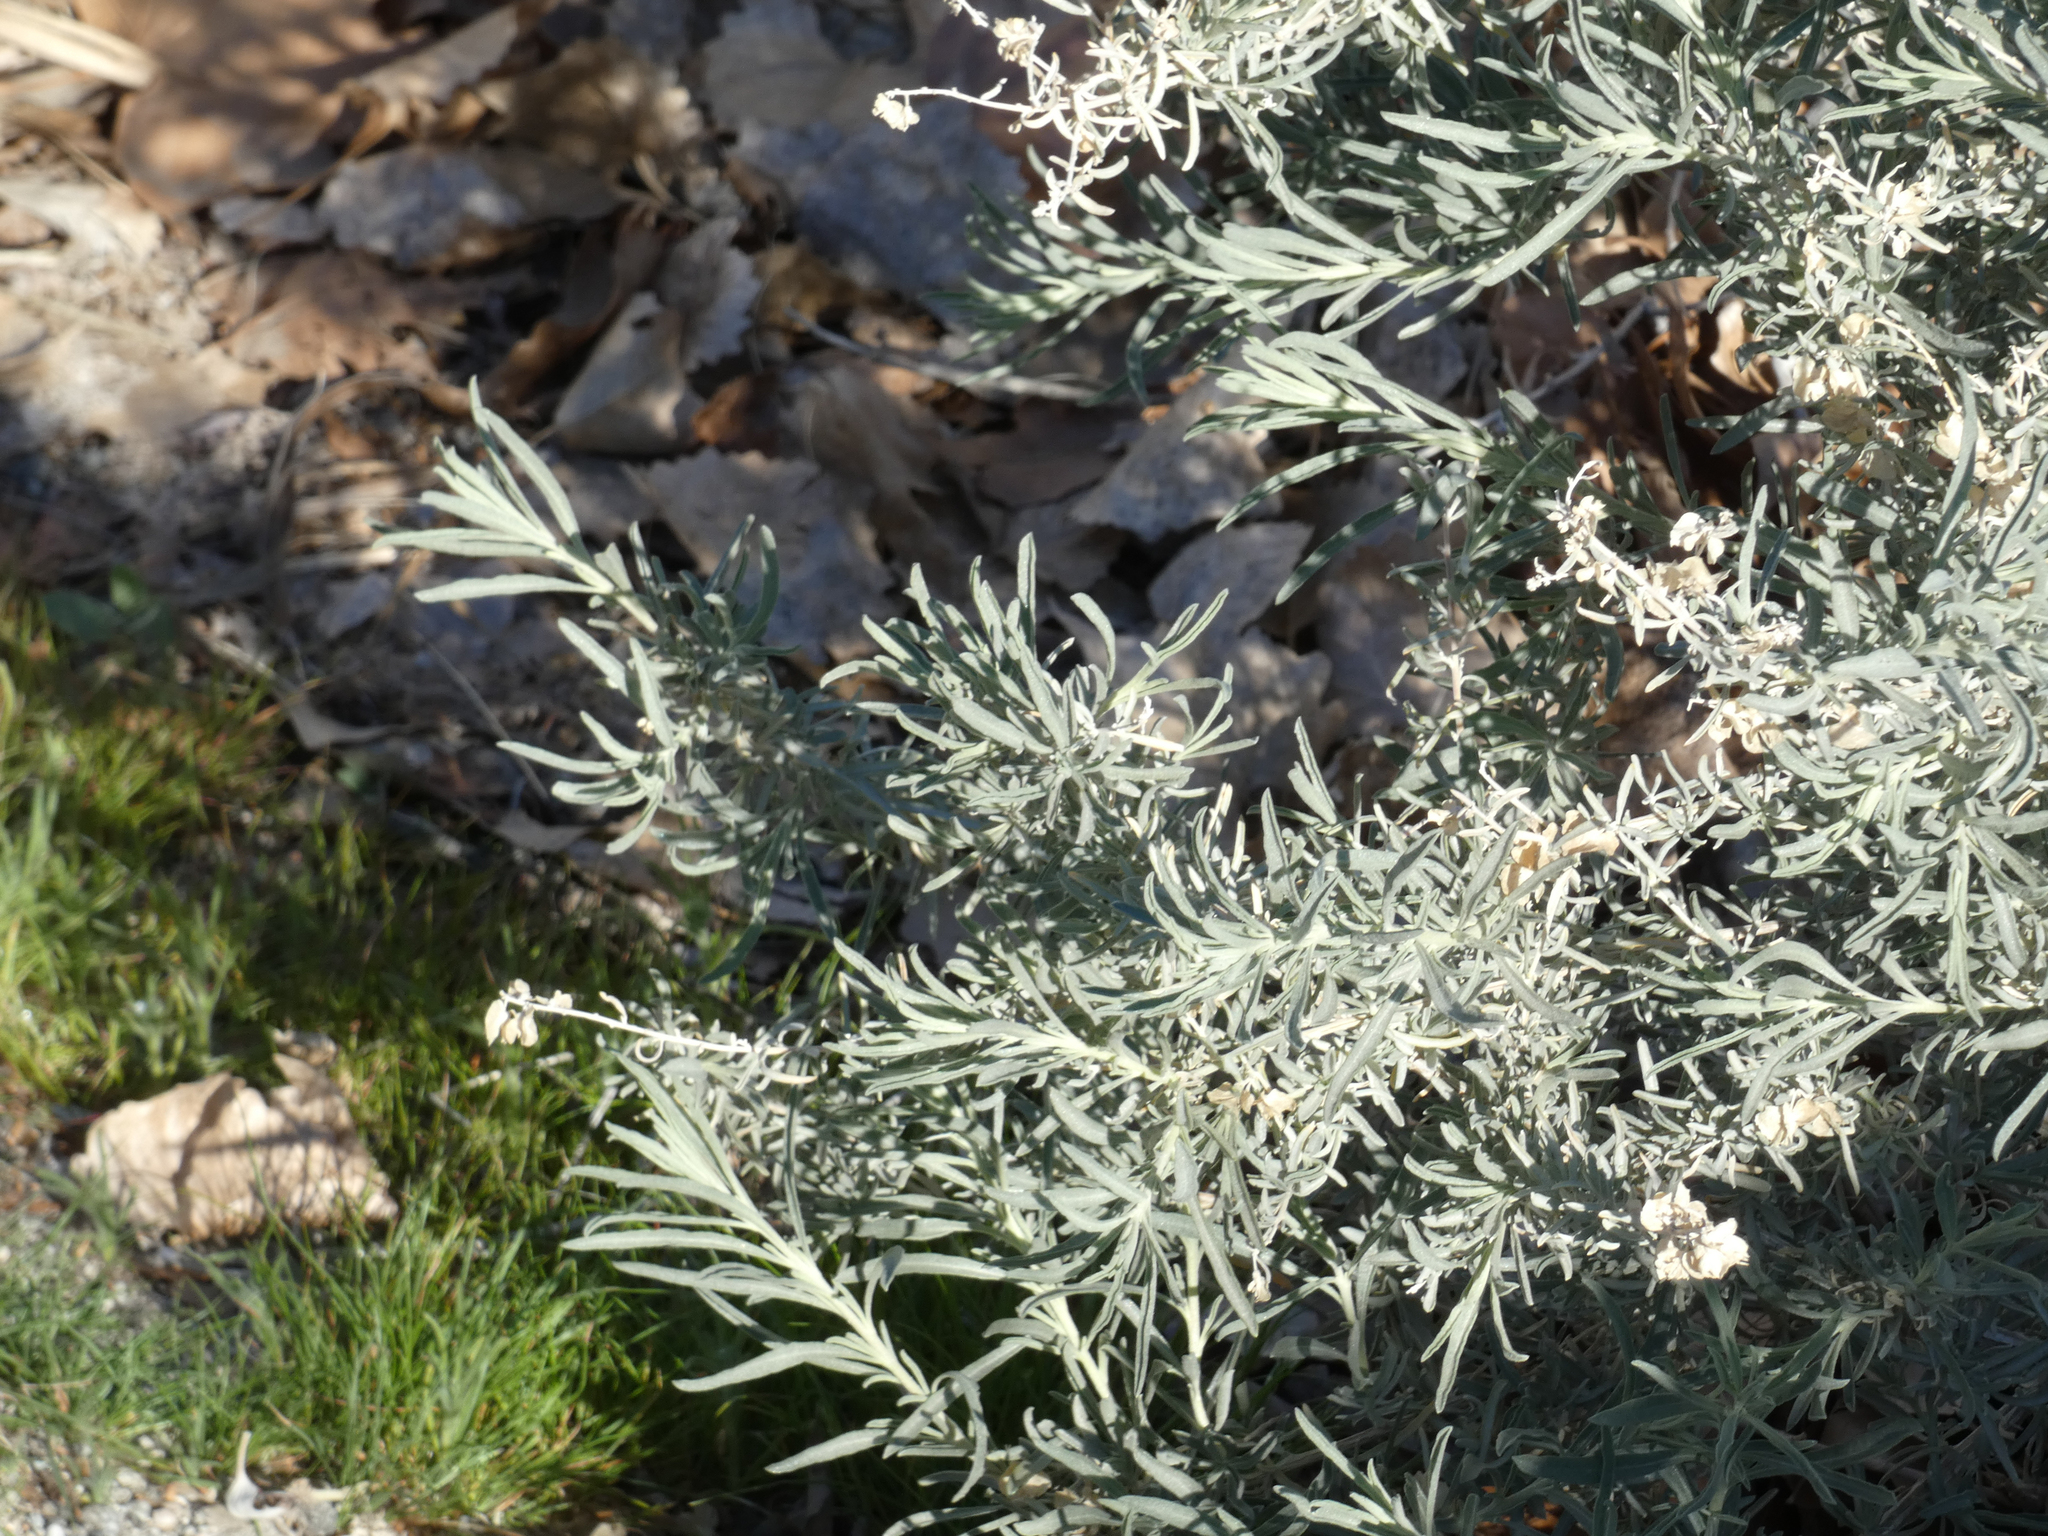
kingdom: Plantae
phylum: Tracheophyta
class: Magnoliopsida
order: Caryophyllales
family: Amaranthaceae
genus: Atriplex
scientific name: Atriplex canescens
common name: Four-wing saltbush
